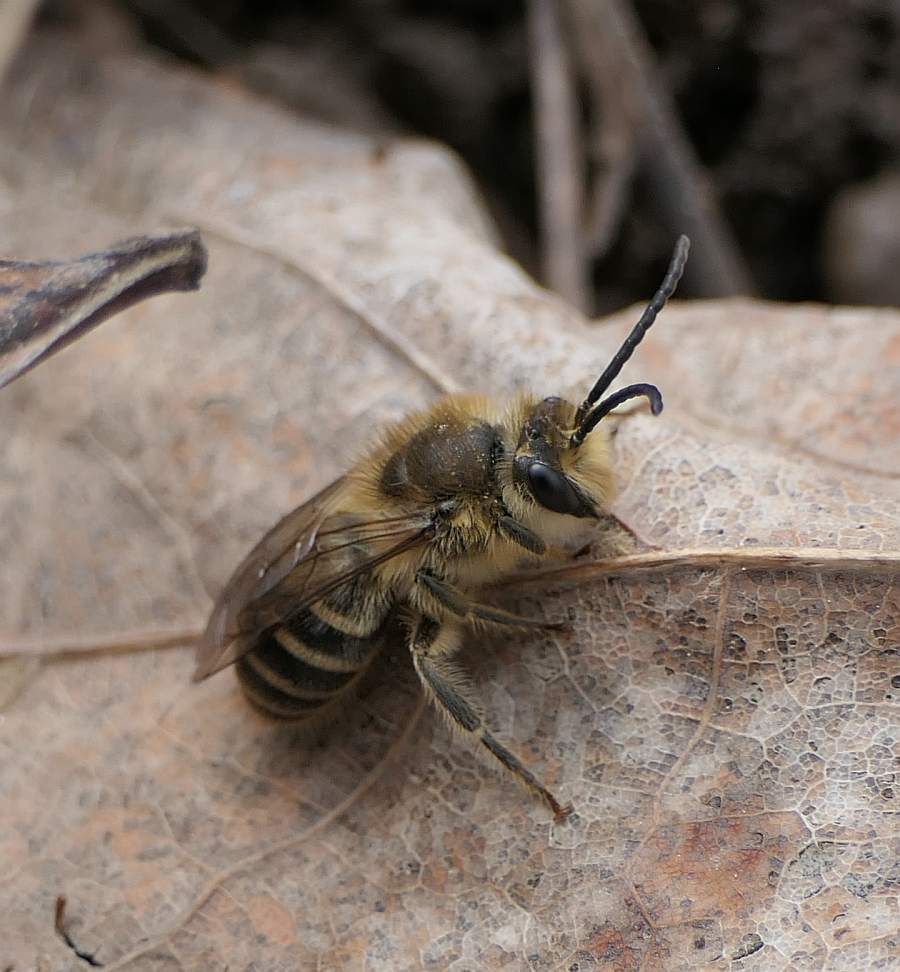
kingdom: Animalia
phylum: Arthropoda
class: Insecta
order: Hymenoptera
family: Colletidae
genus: Colletes
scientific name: Colletes inaequalis
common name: Unequal cellophane bee
